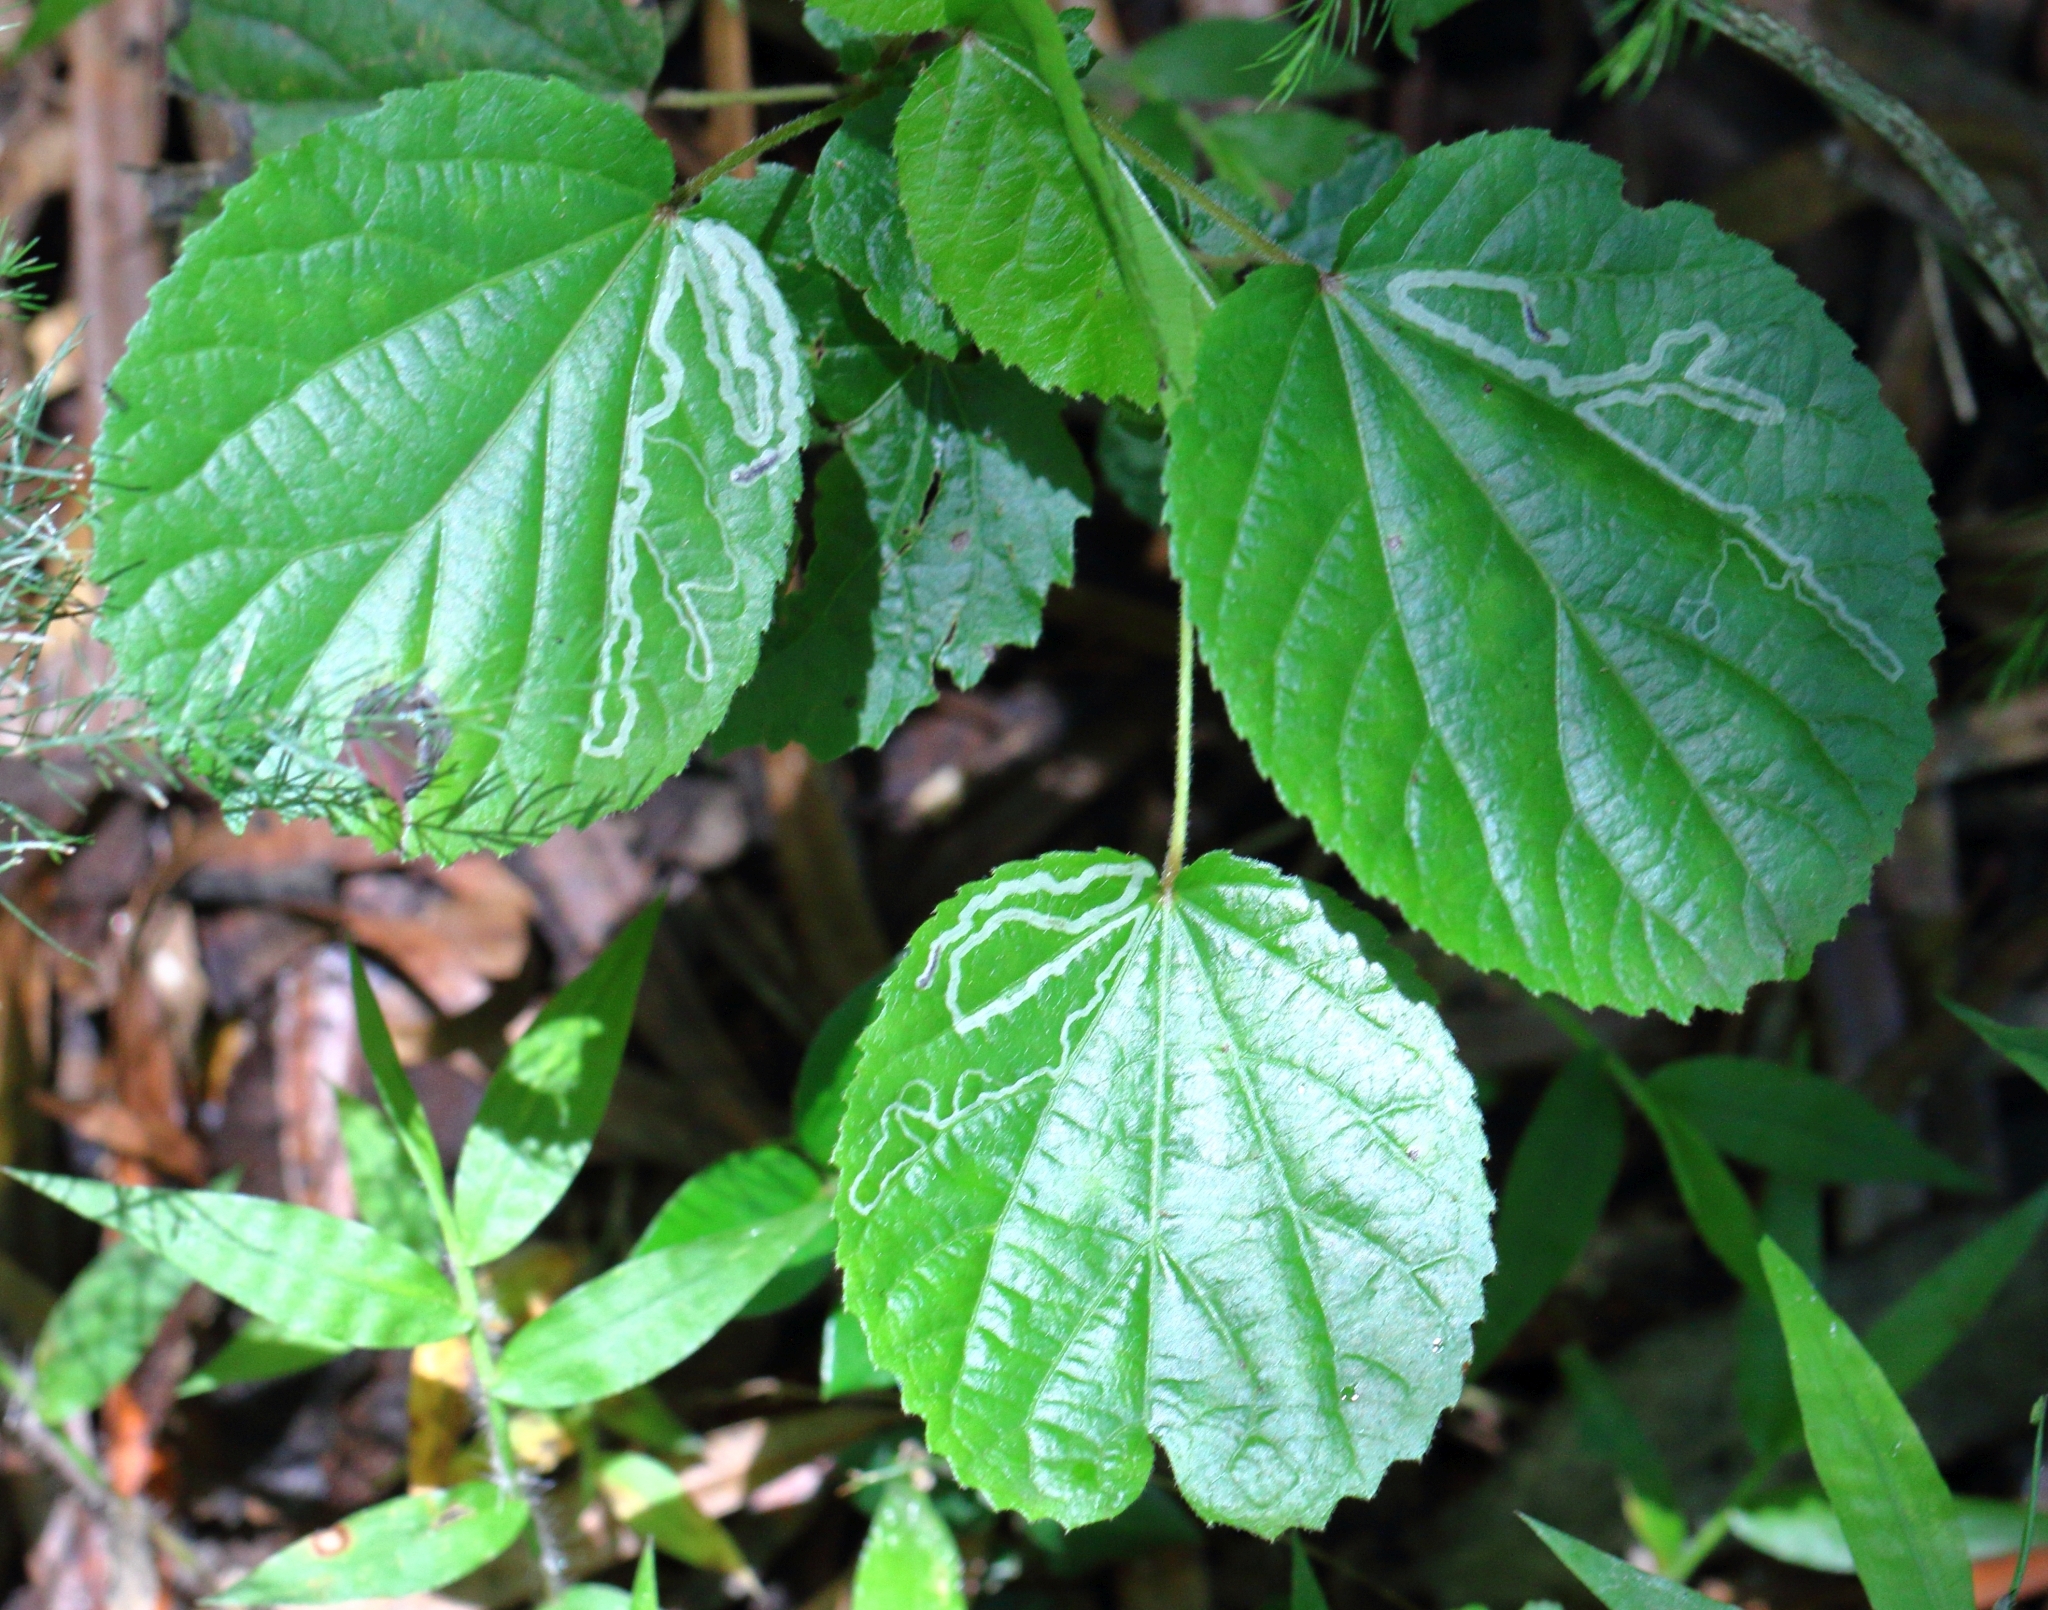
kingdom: Plantae
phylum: Tracheophyta
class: Magnoliopsida
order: Malpighiales
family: Salicaceae
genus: Trimeria
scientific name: Trimeria grandifolia
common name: Wild mulberry
